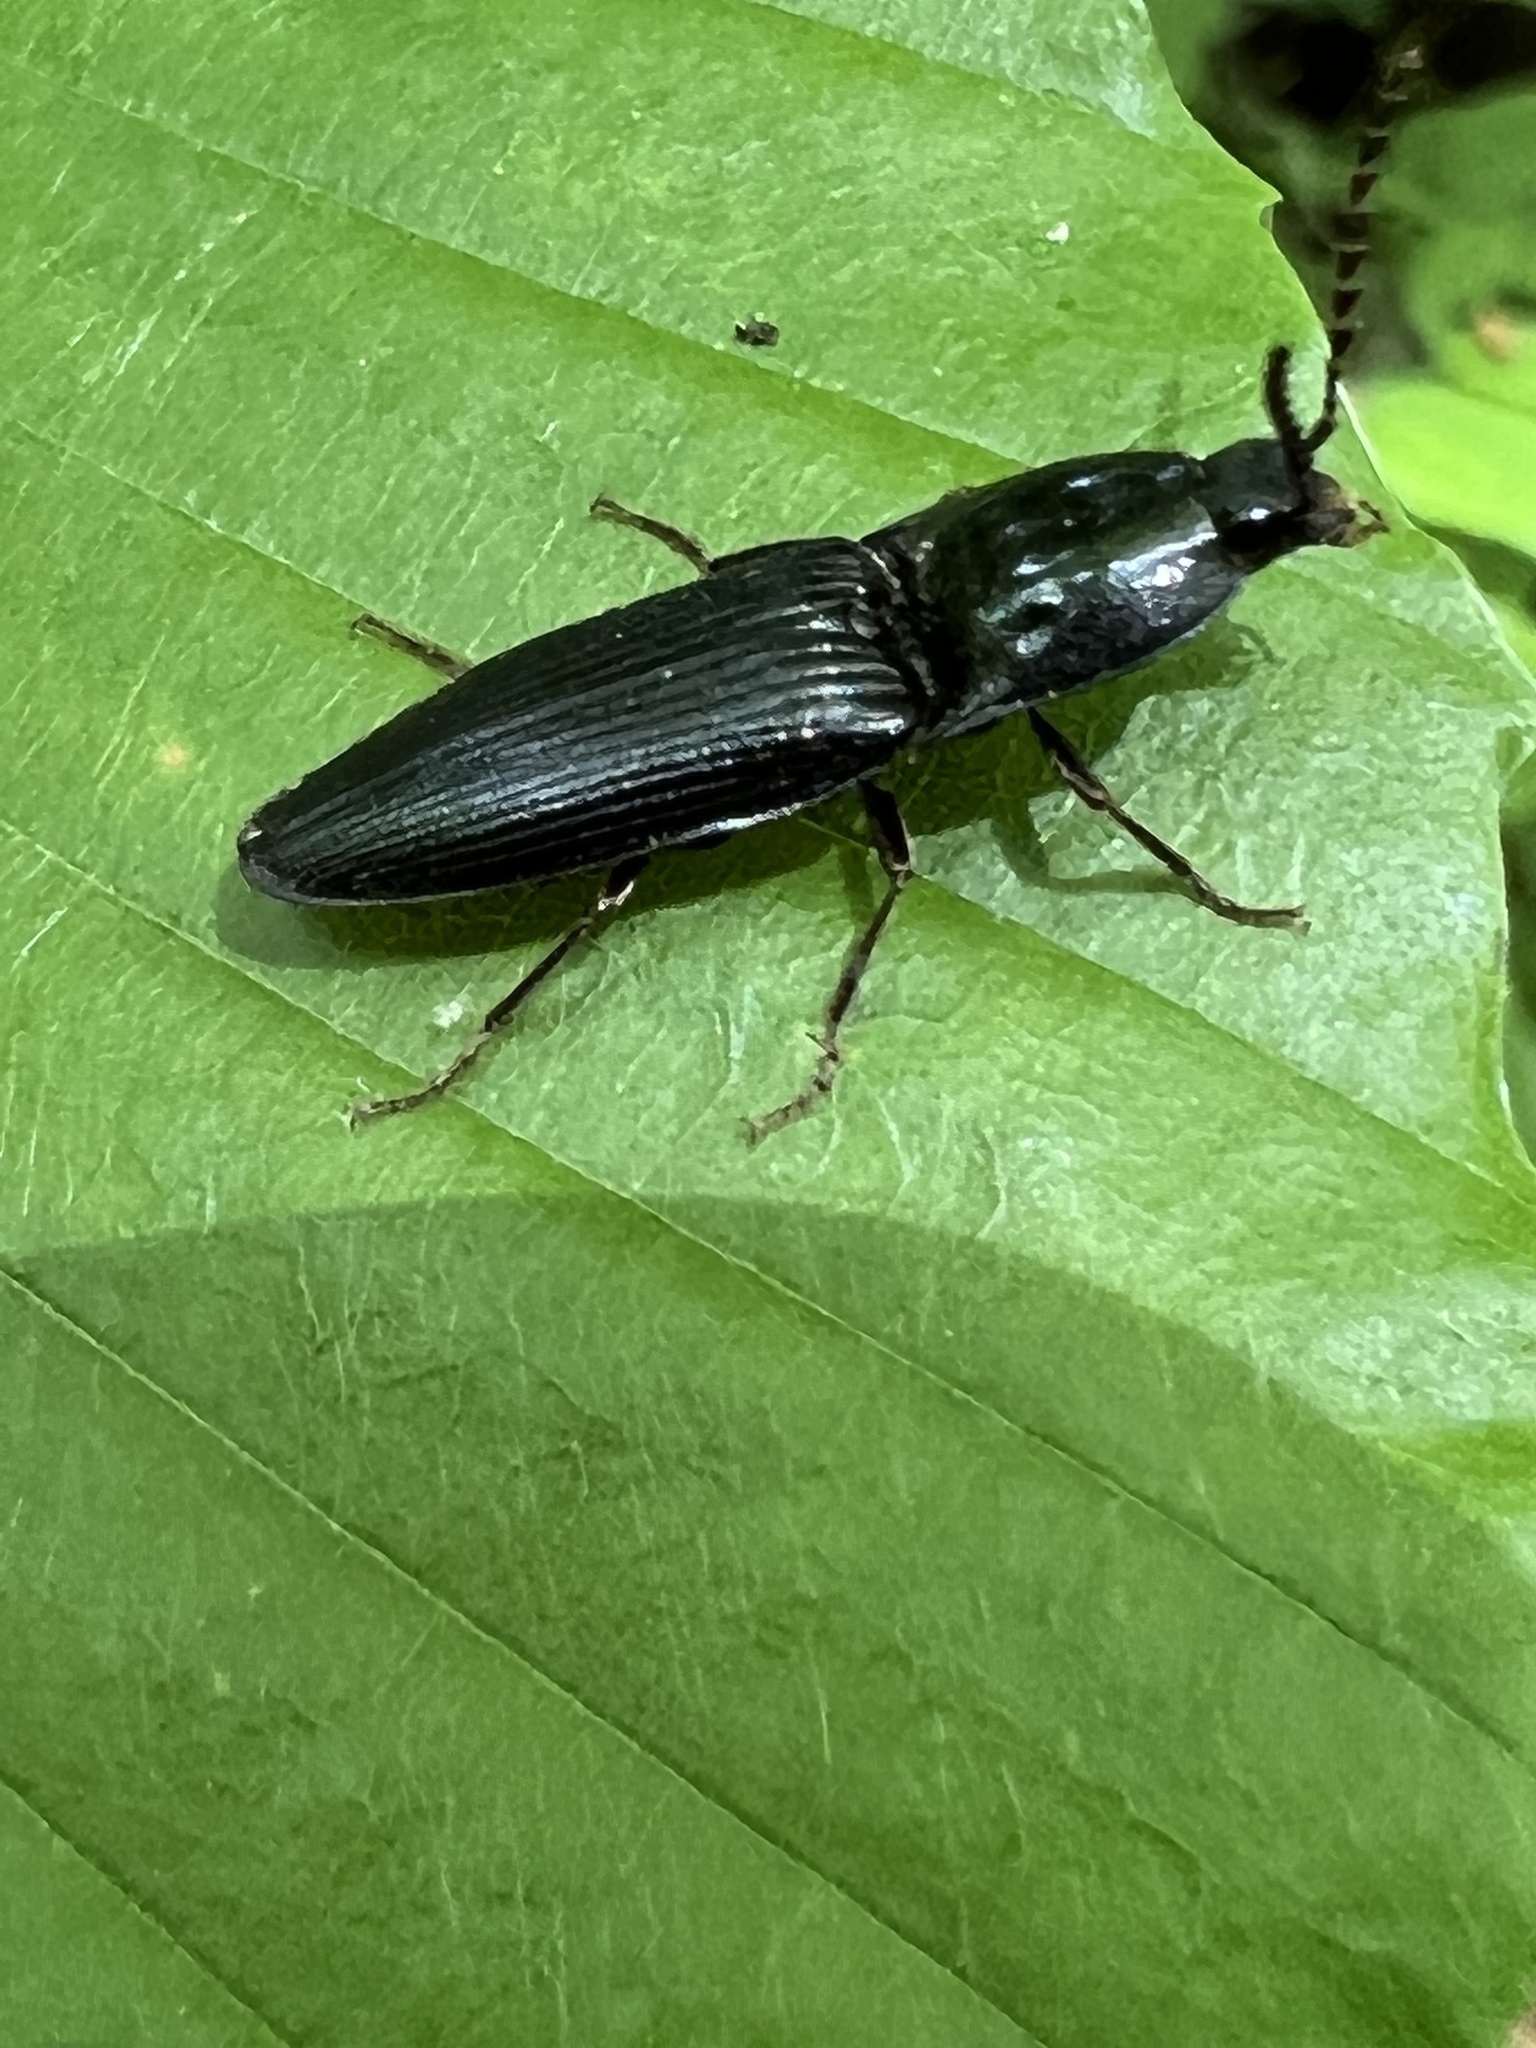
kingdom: Animalia
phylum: Arthropoda
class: Insecta
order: Coleoptera
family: Elateridae
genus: Neopristilophus
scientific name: Neopristilophus
